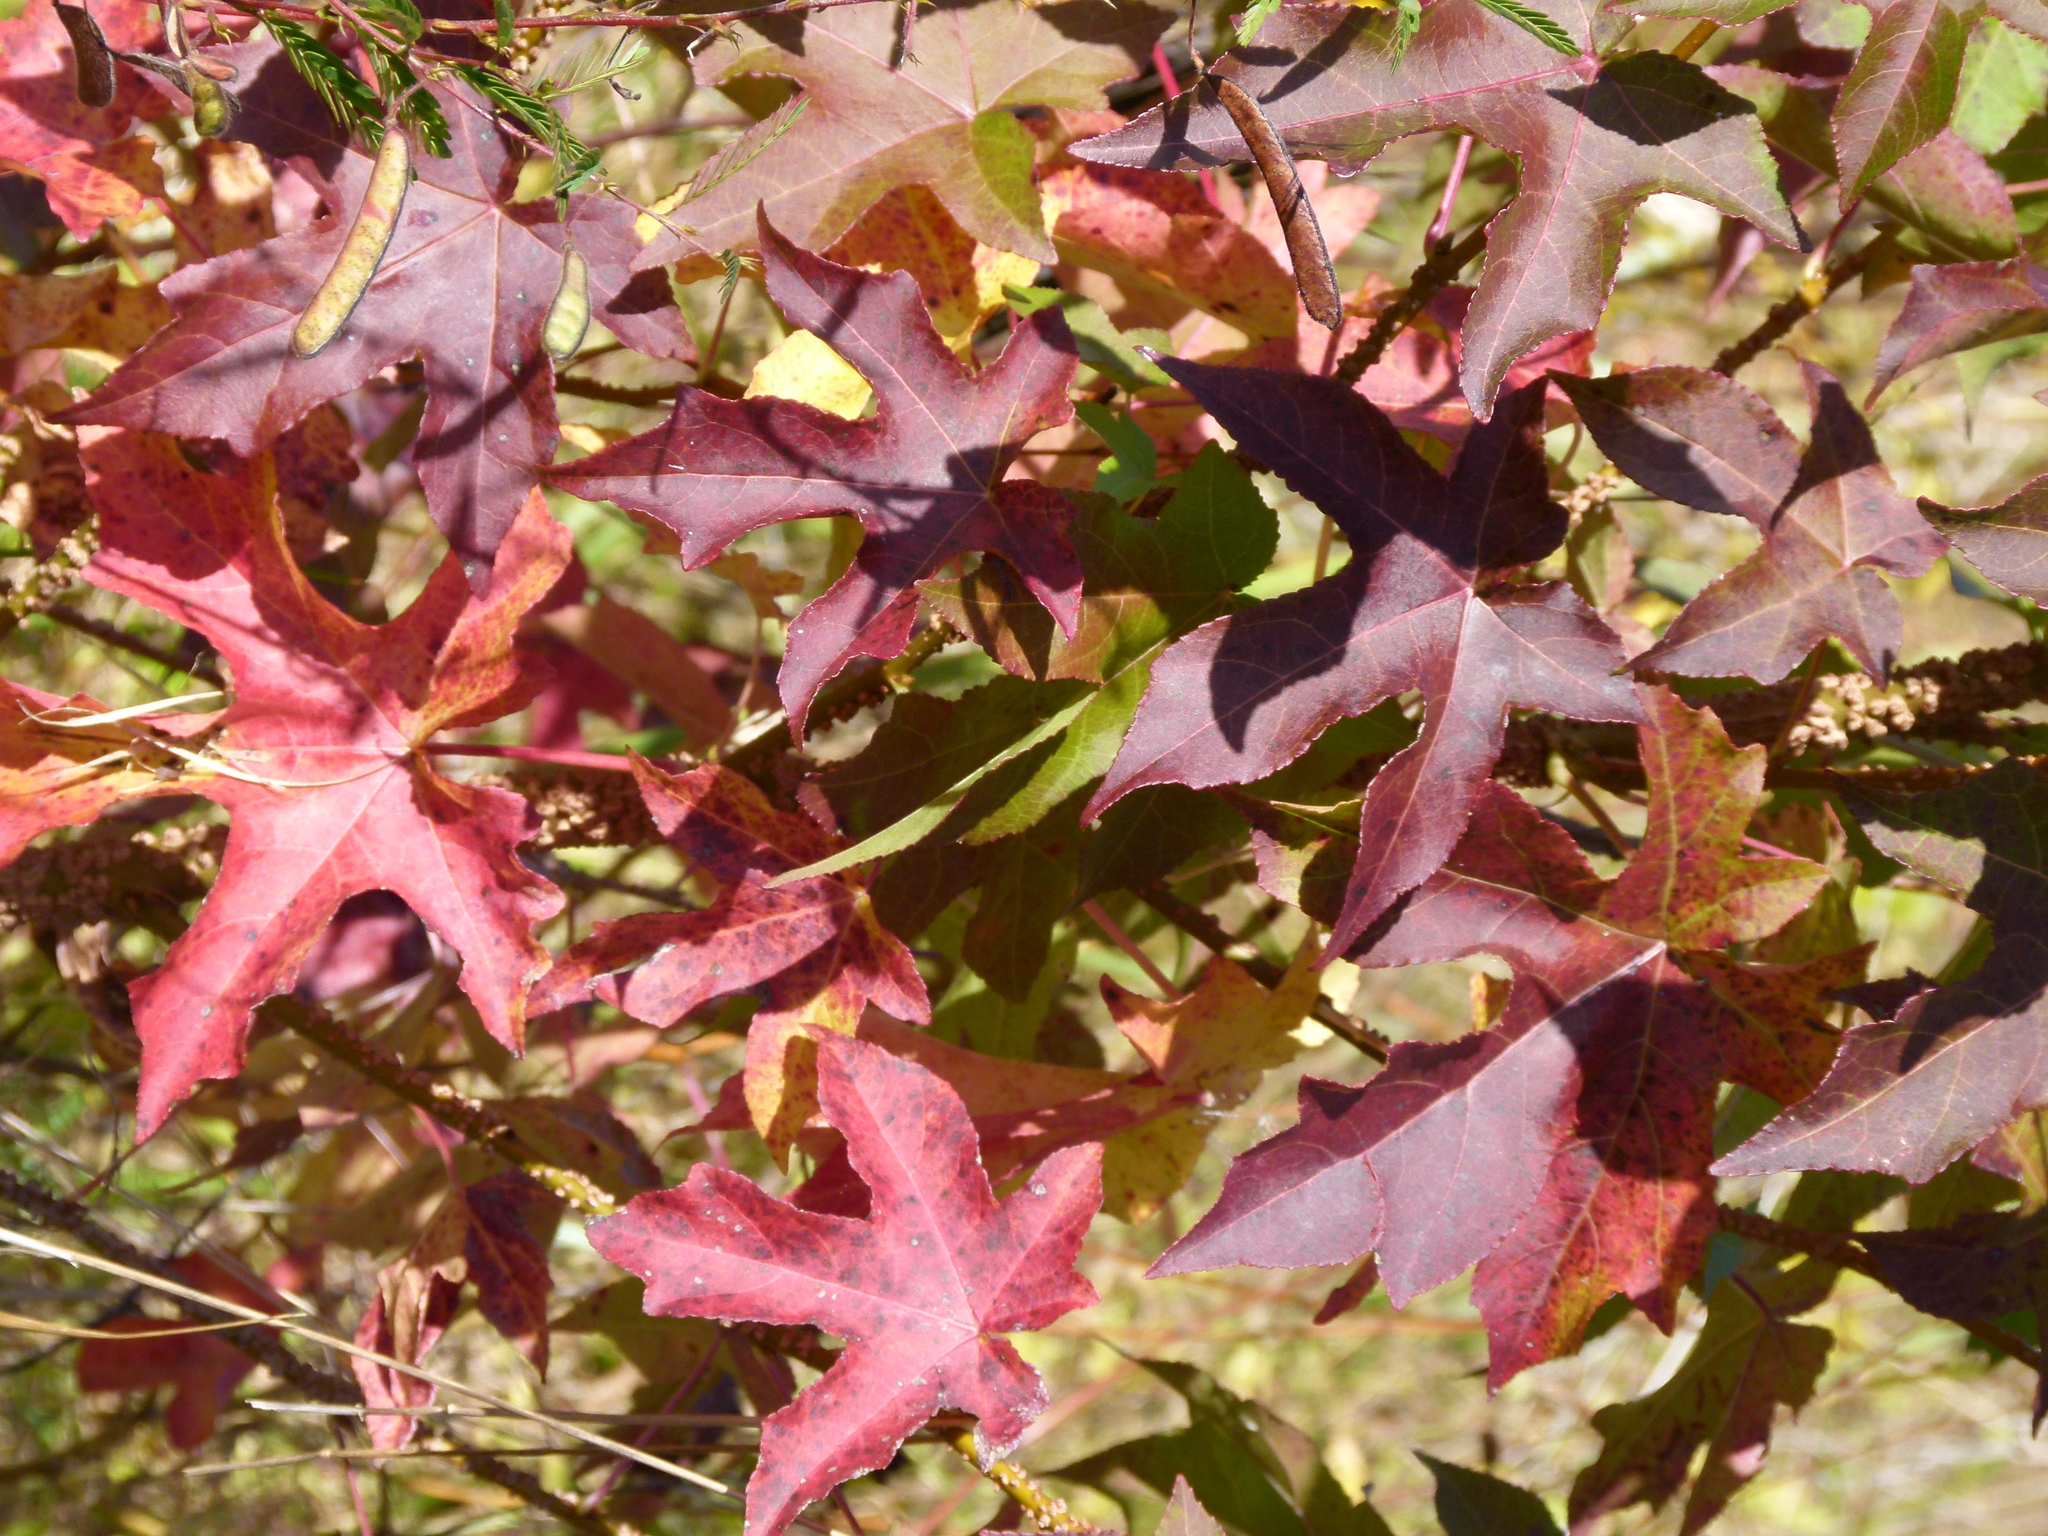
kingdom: Plantae
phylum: Tracheophyta
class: Magnoliopsida
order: Saxifragales
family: Altingiaceae
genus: Liquidambar
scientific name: Liquidambar styraciflua
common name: Sweet gum
